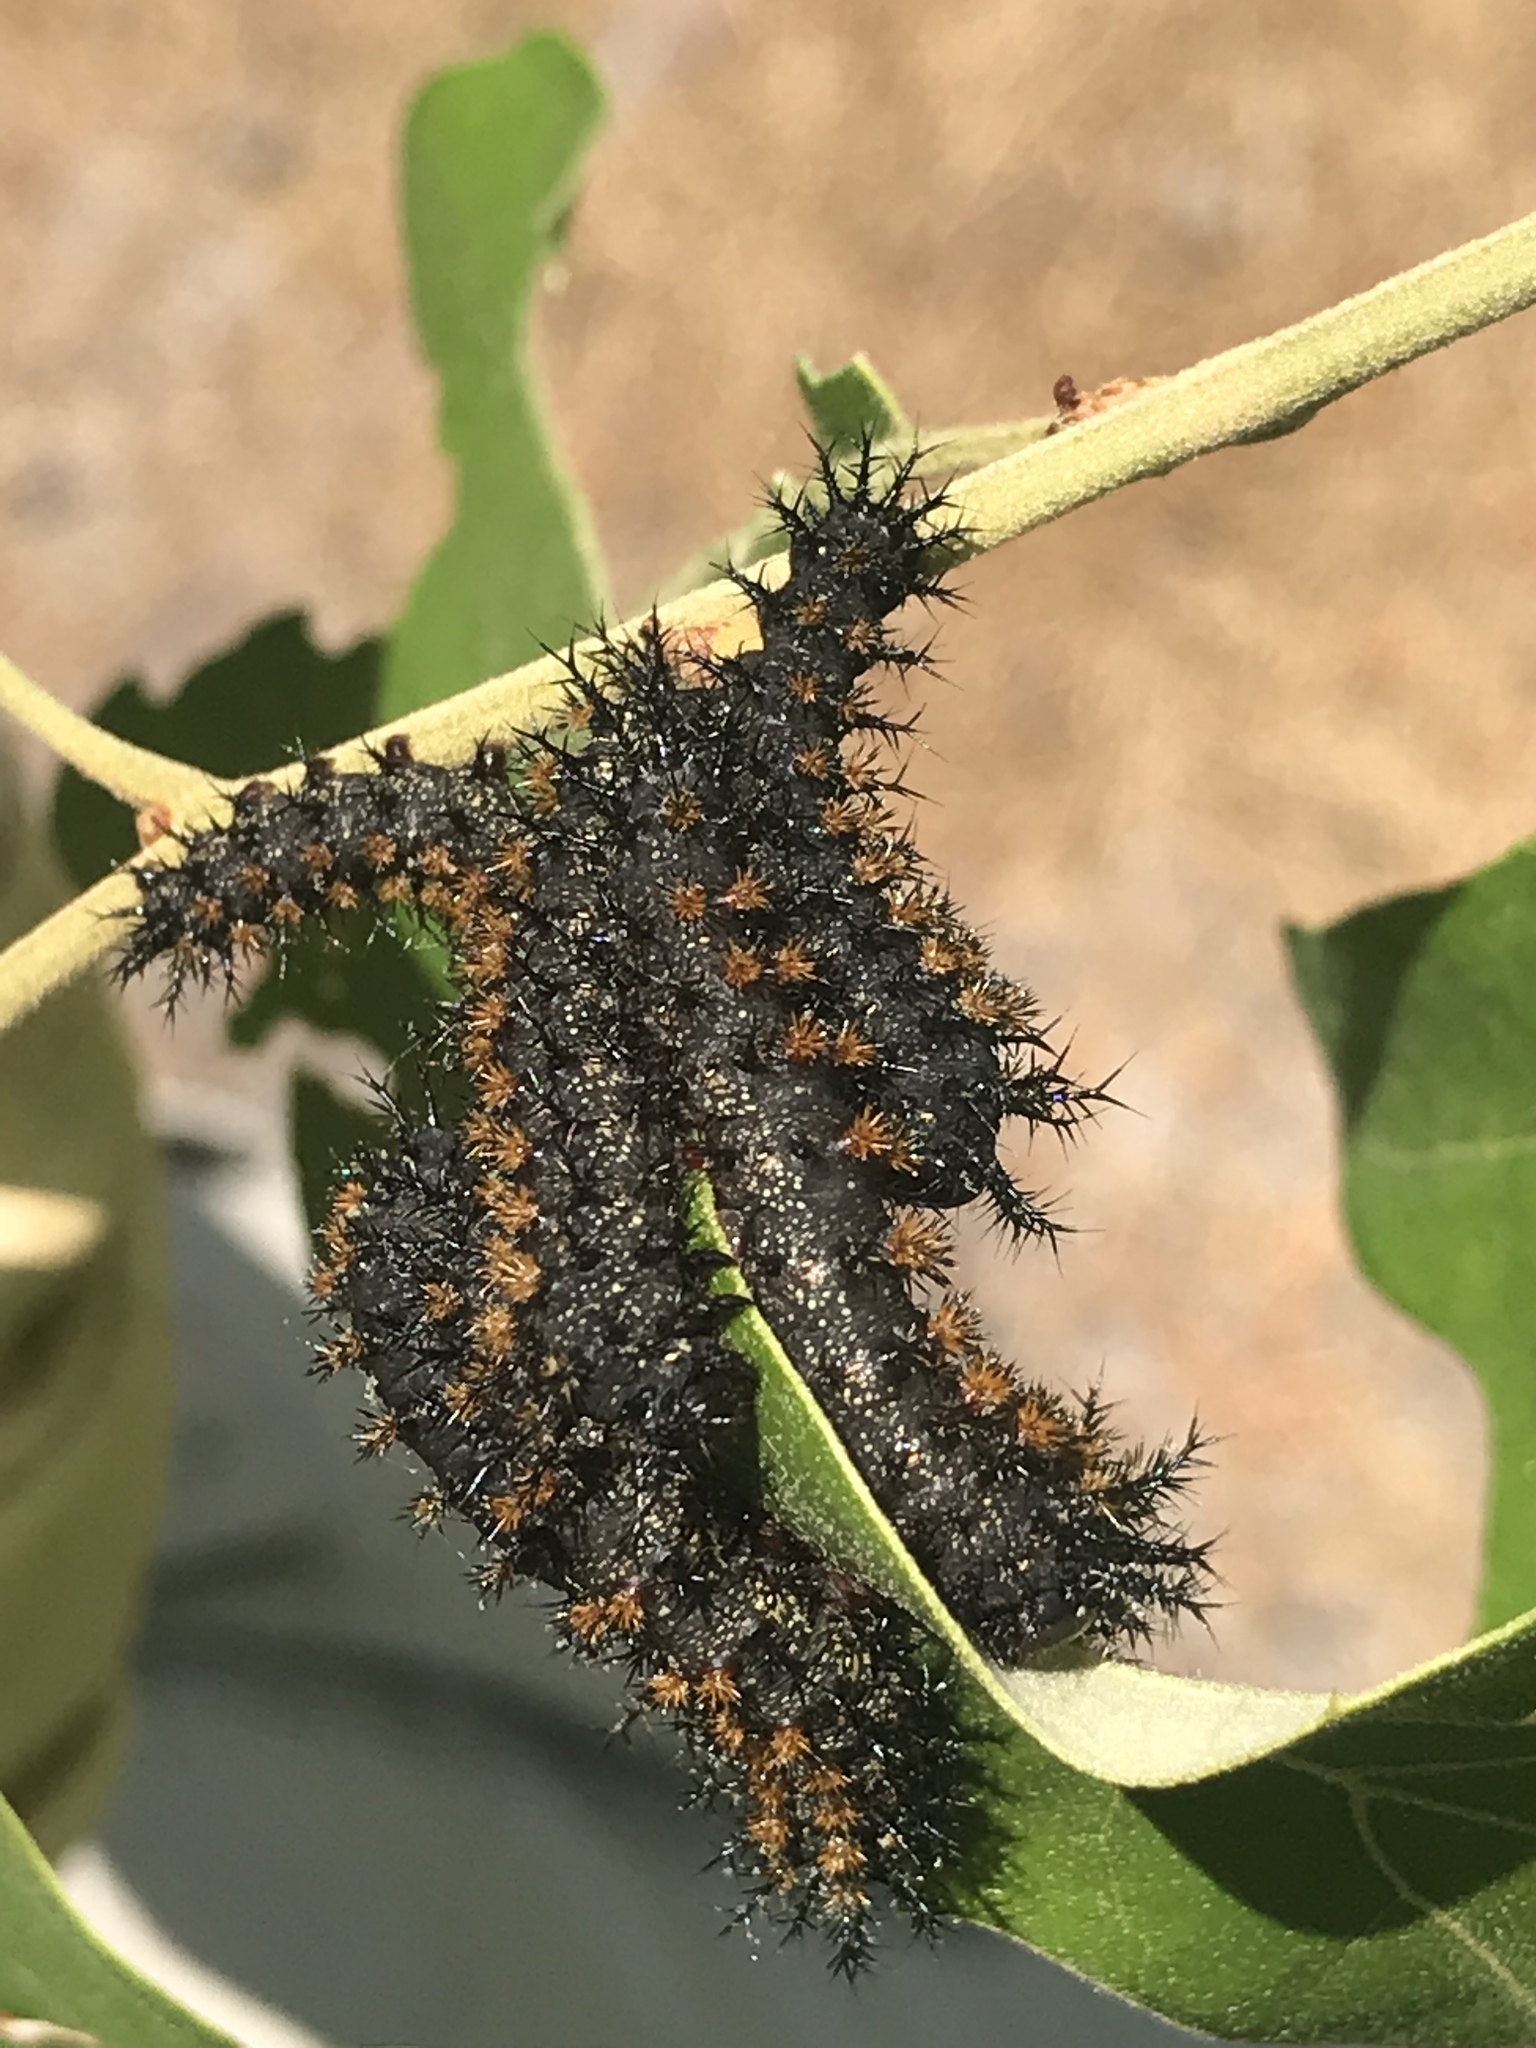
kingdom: Animalia
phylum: Arthropoda
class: Insecta
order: Lepidoptera
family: Saturniidae
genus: Hemileuca
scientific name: Hemileuca maia
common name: Eastern buckmoth
